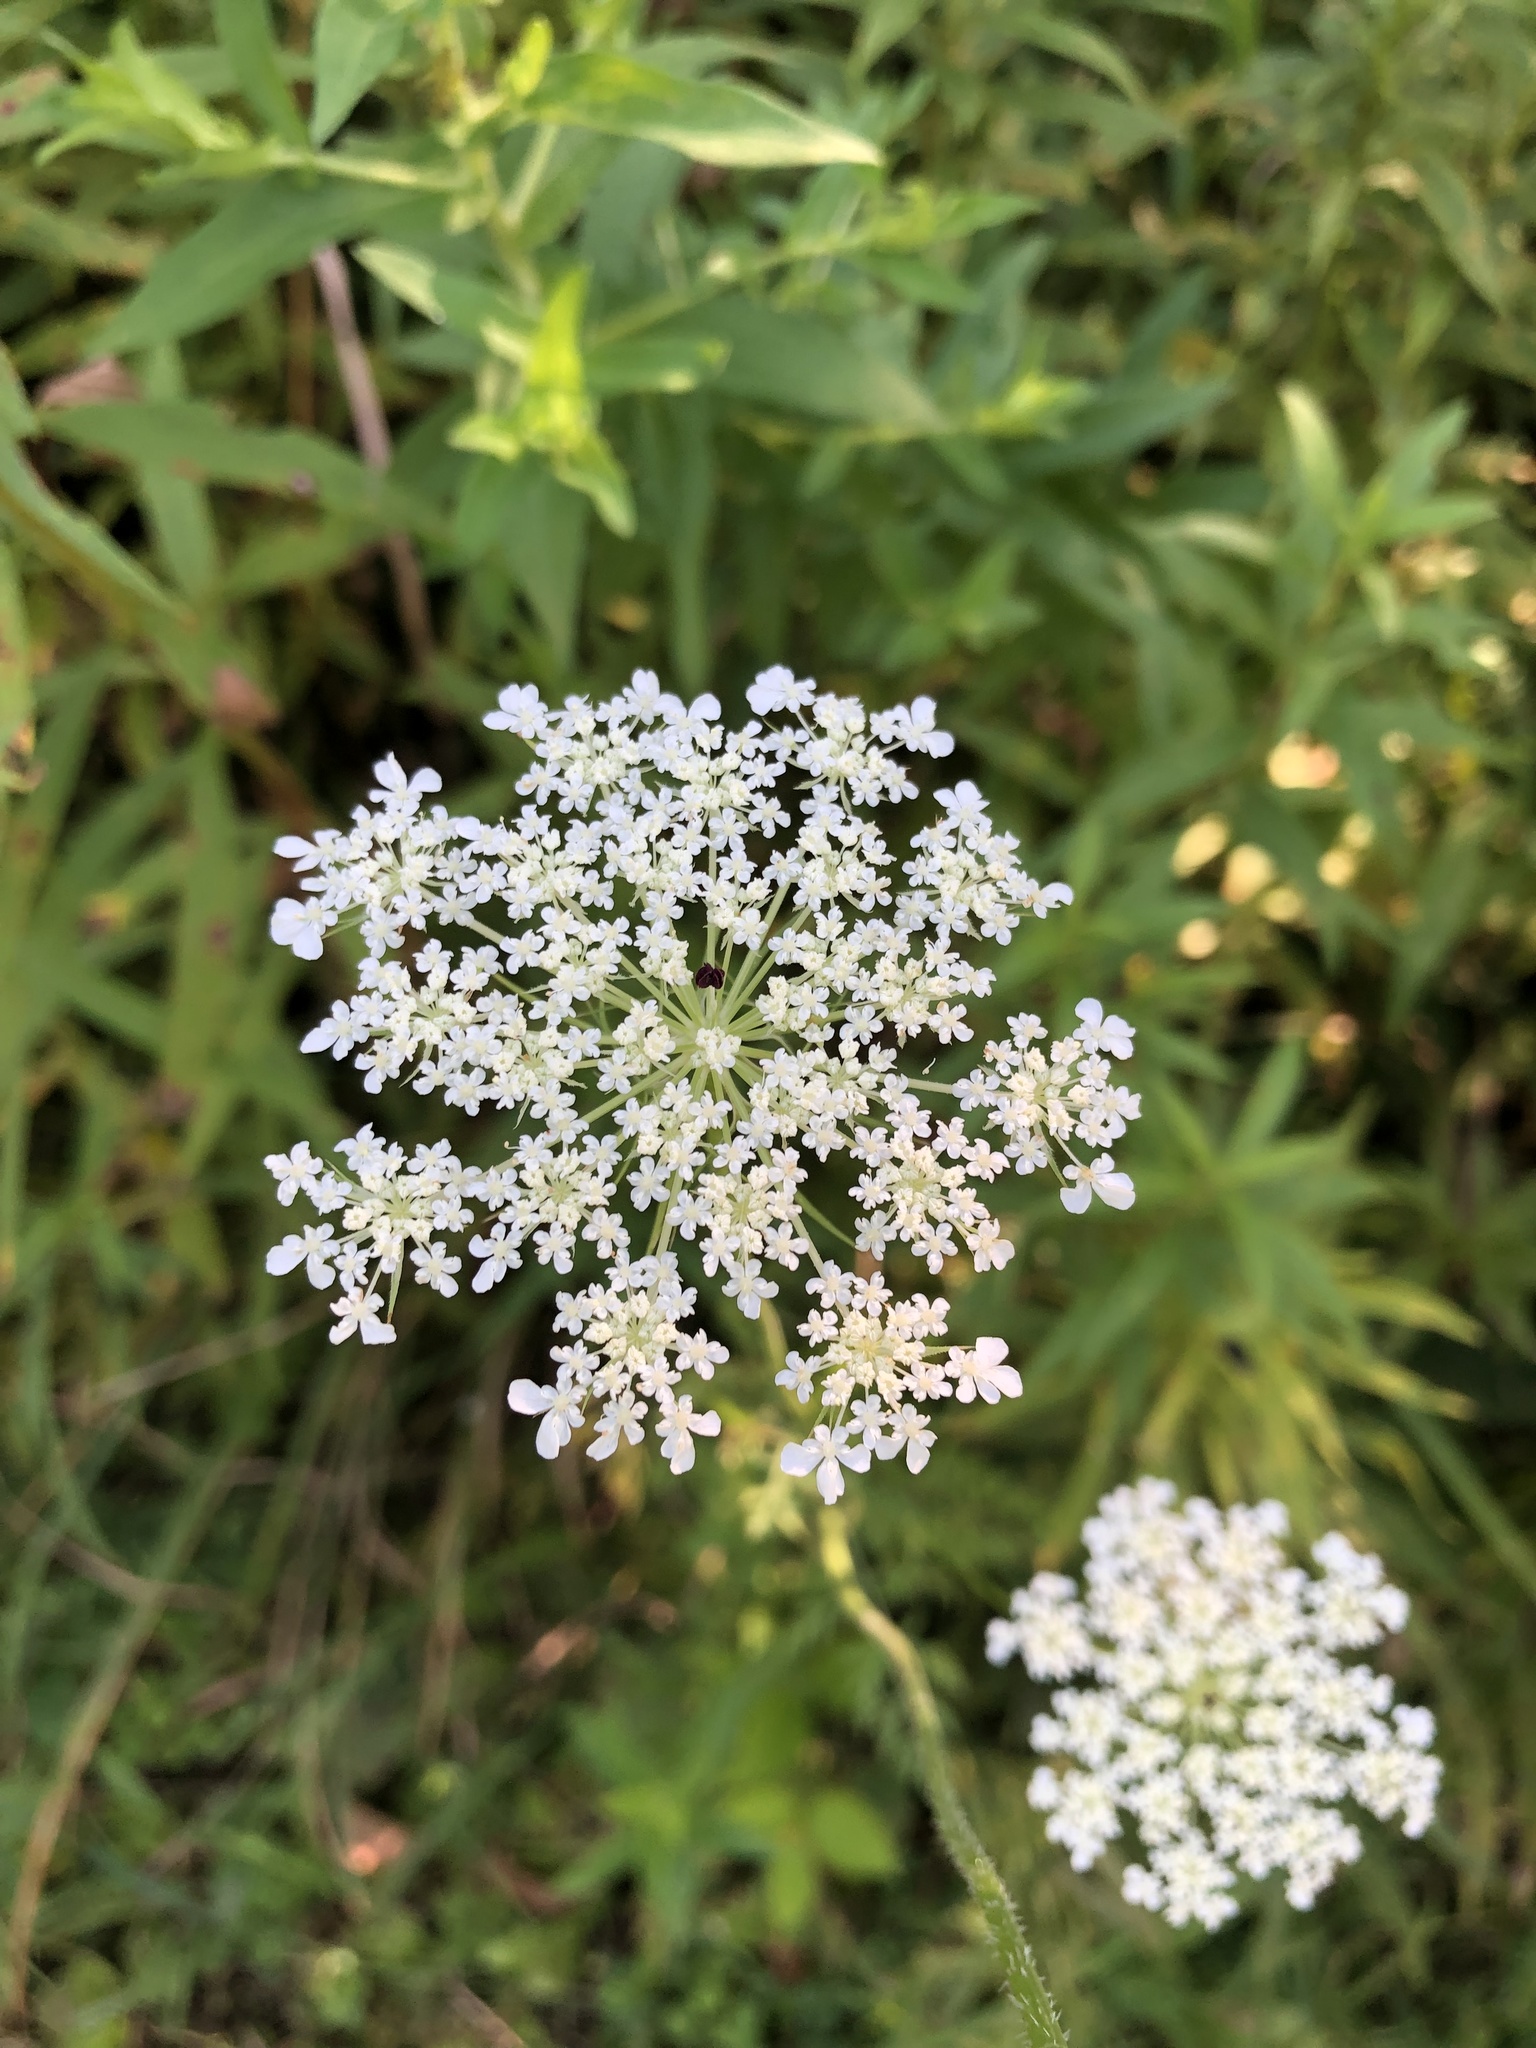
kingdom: Plantae
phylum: Tracheophyta
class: Magnoliopsida
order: Apiales
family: Apiaceae
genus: Daucus
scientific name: Daucus carota
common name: Wild carrot
